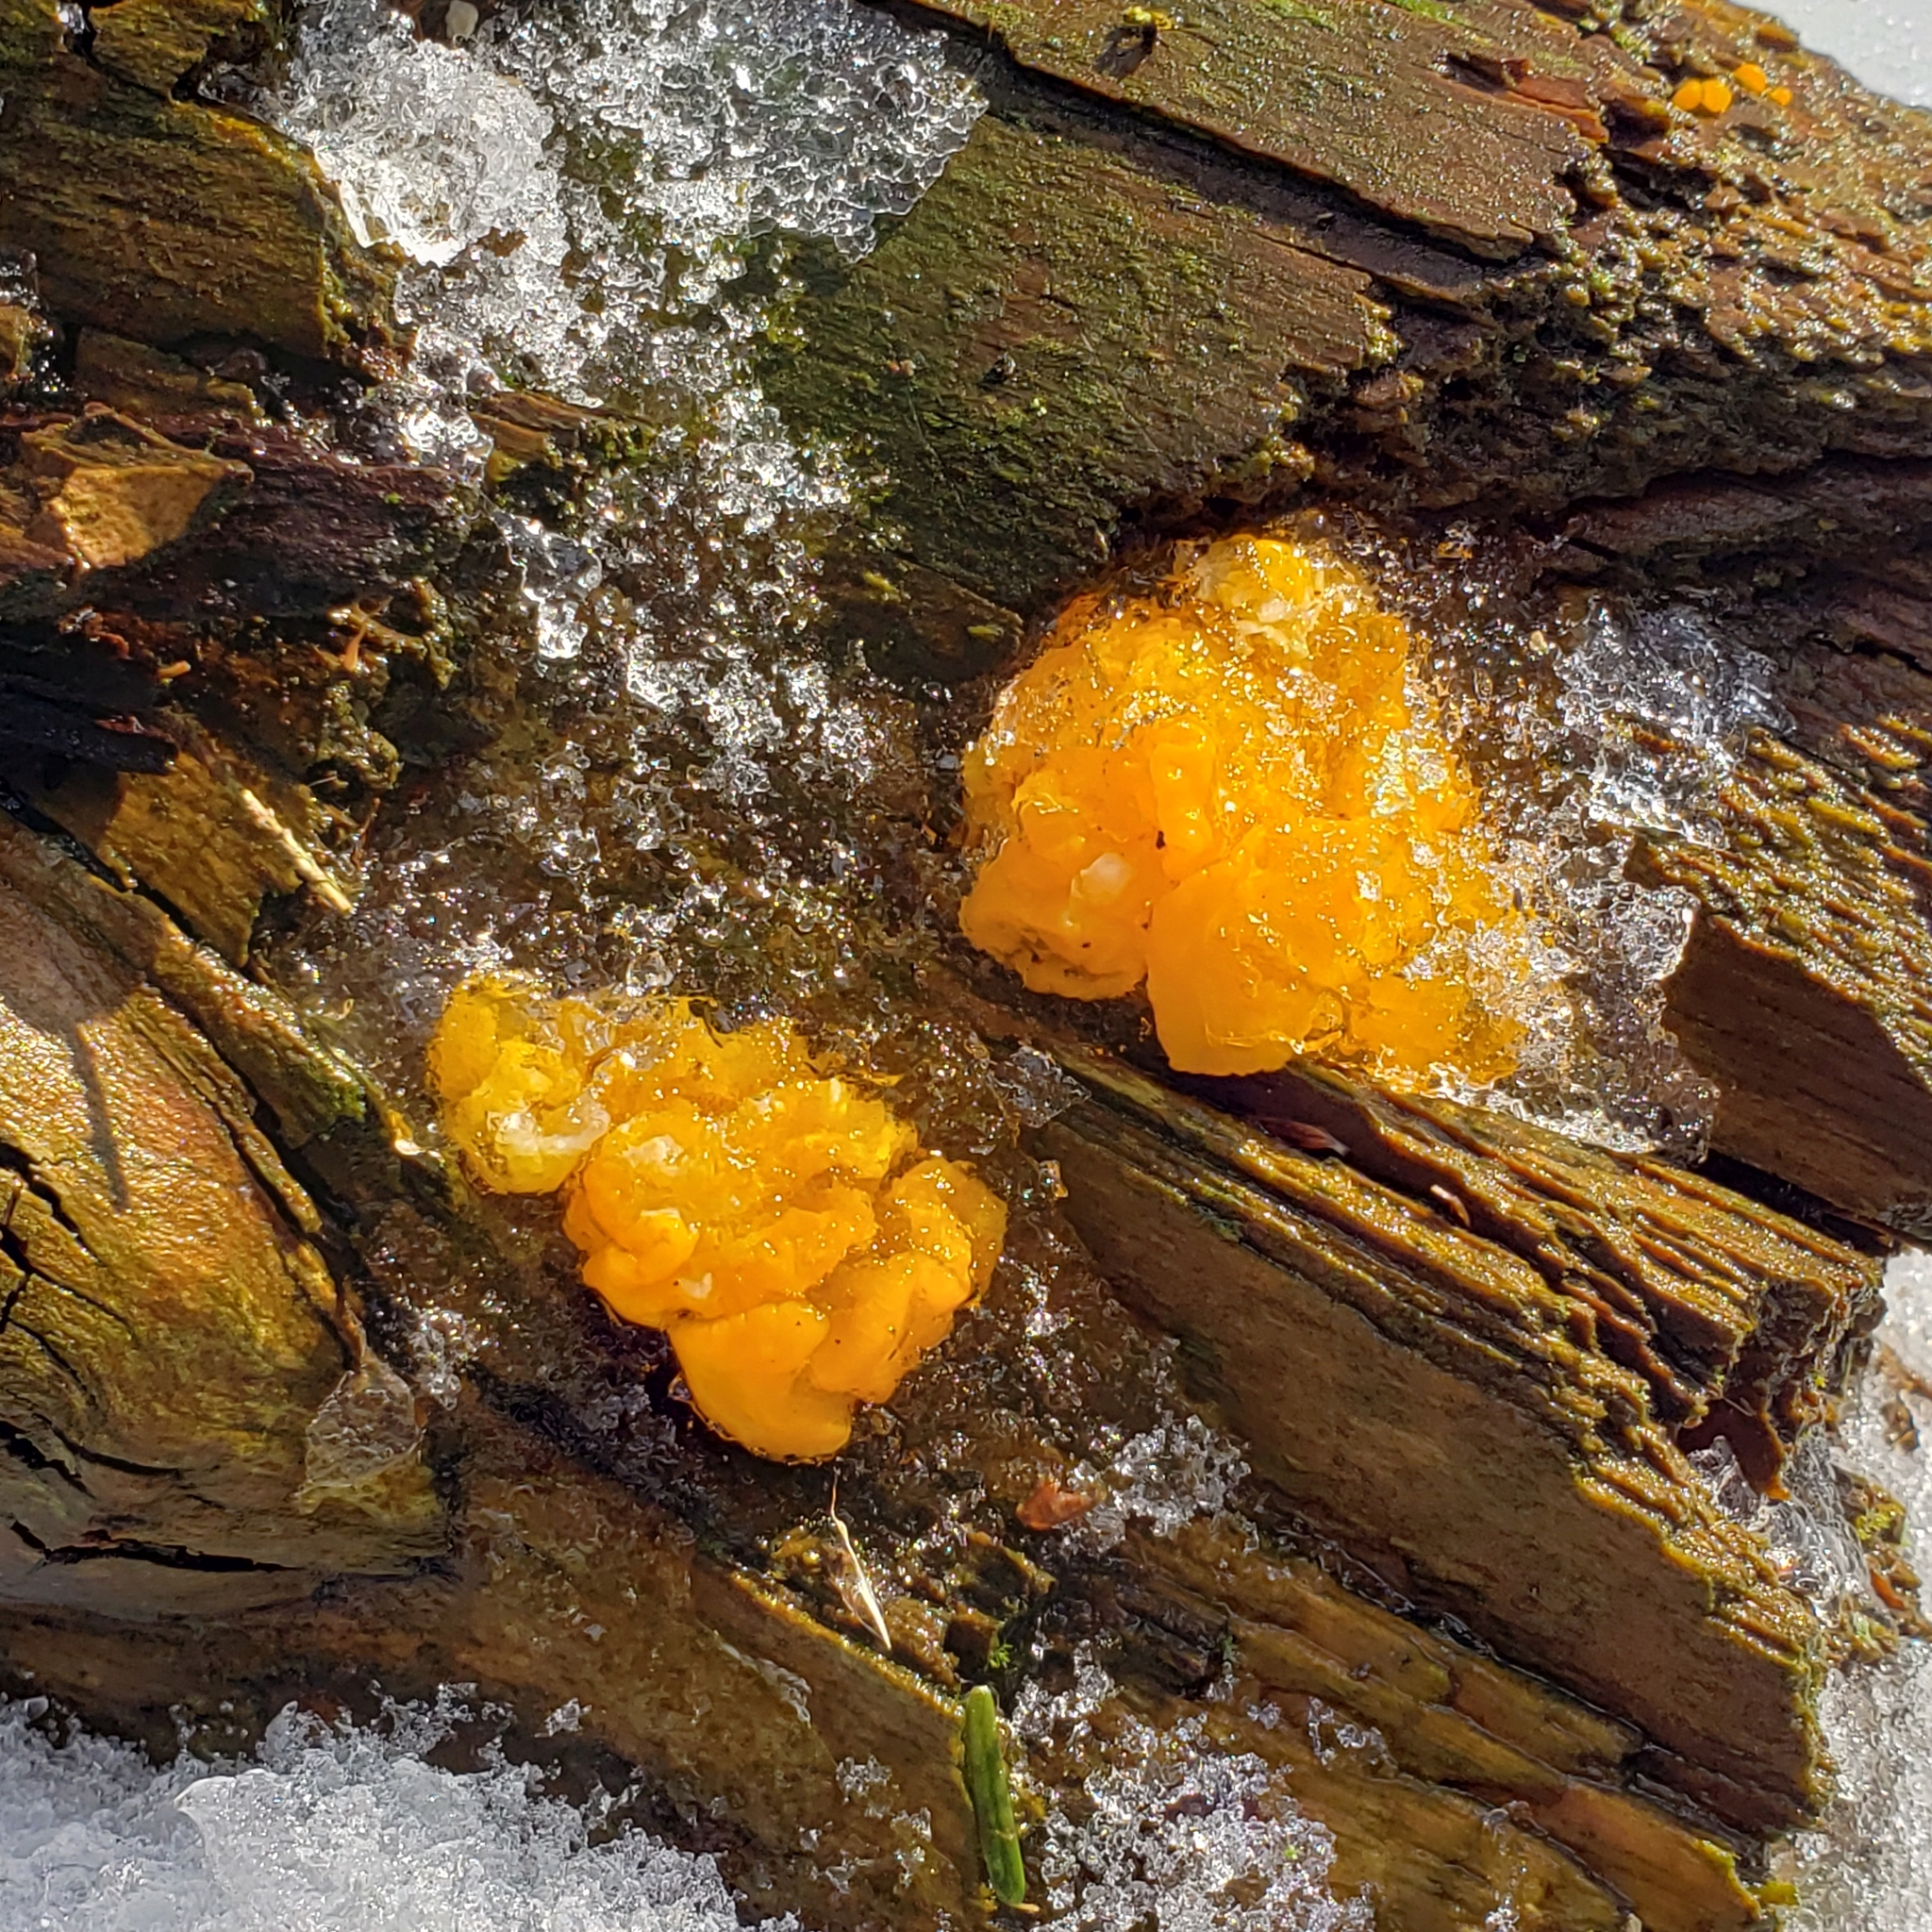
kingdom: Fungi
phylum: Basidiomycota
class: Dacrymycetes
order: Dacrymycetales
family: Dacrymycetaceae
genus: Dacrymyces
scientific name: Dacrymyces chrysospermus
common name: Orange jelly spot
